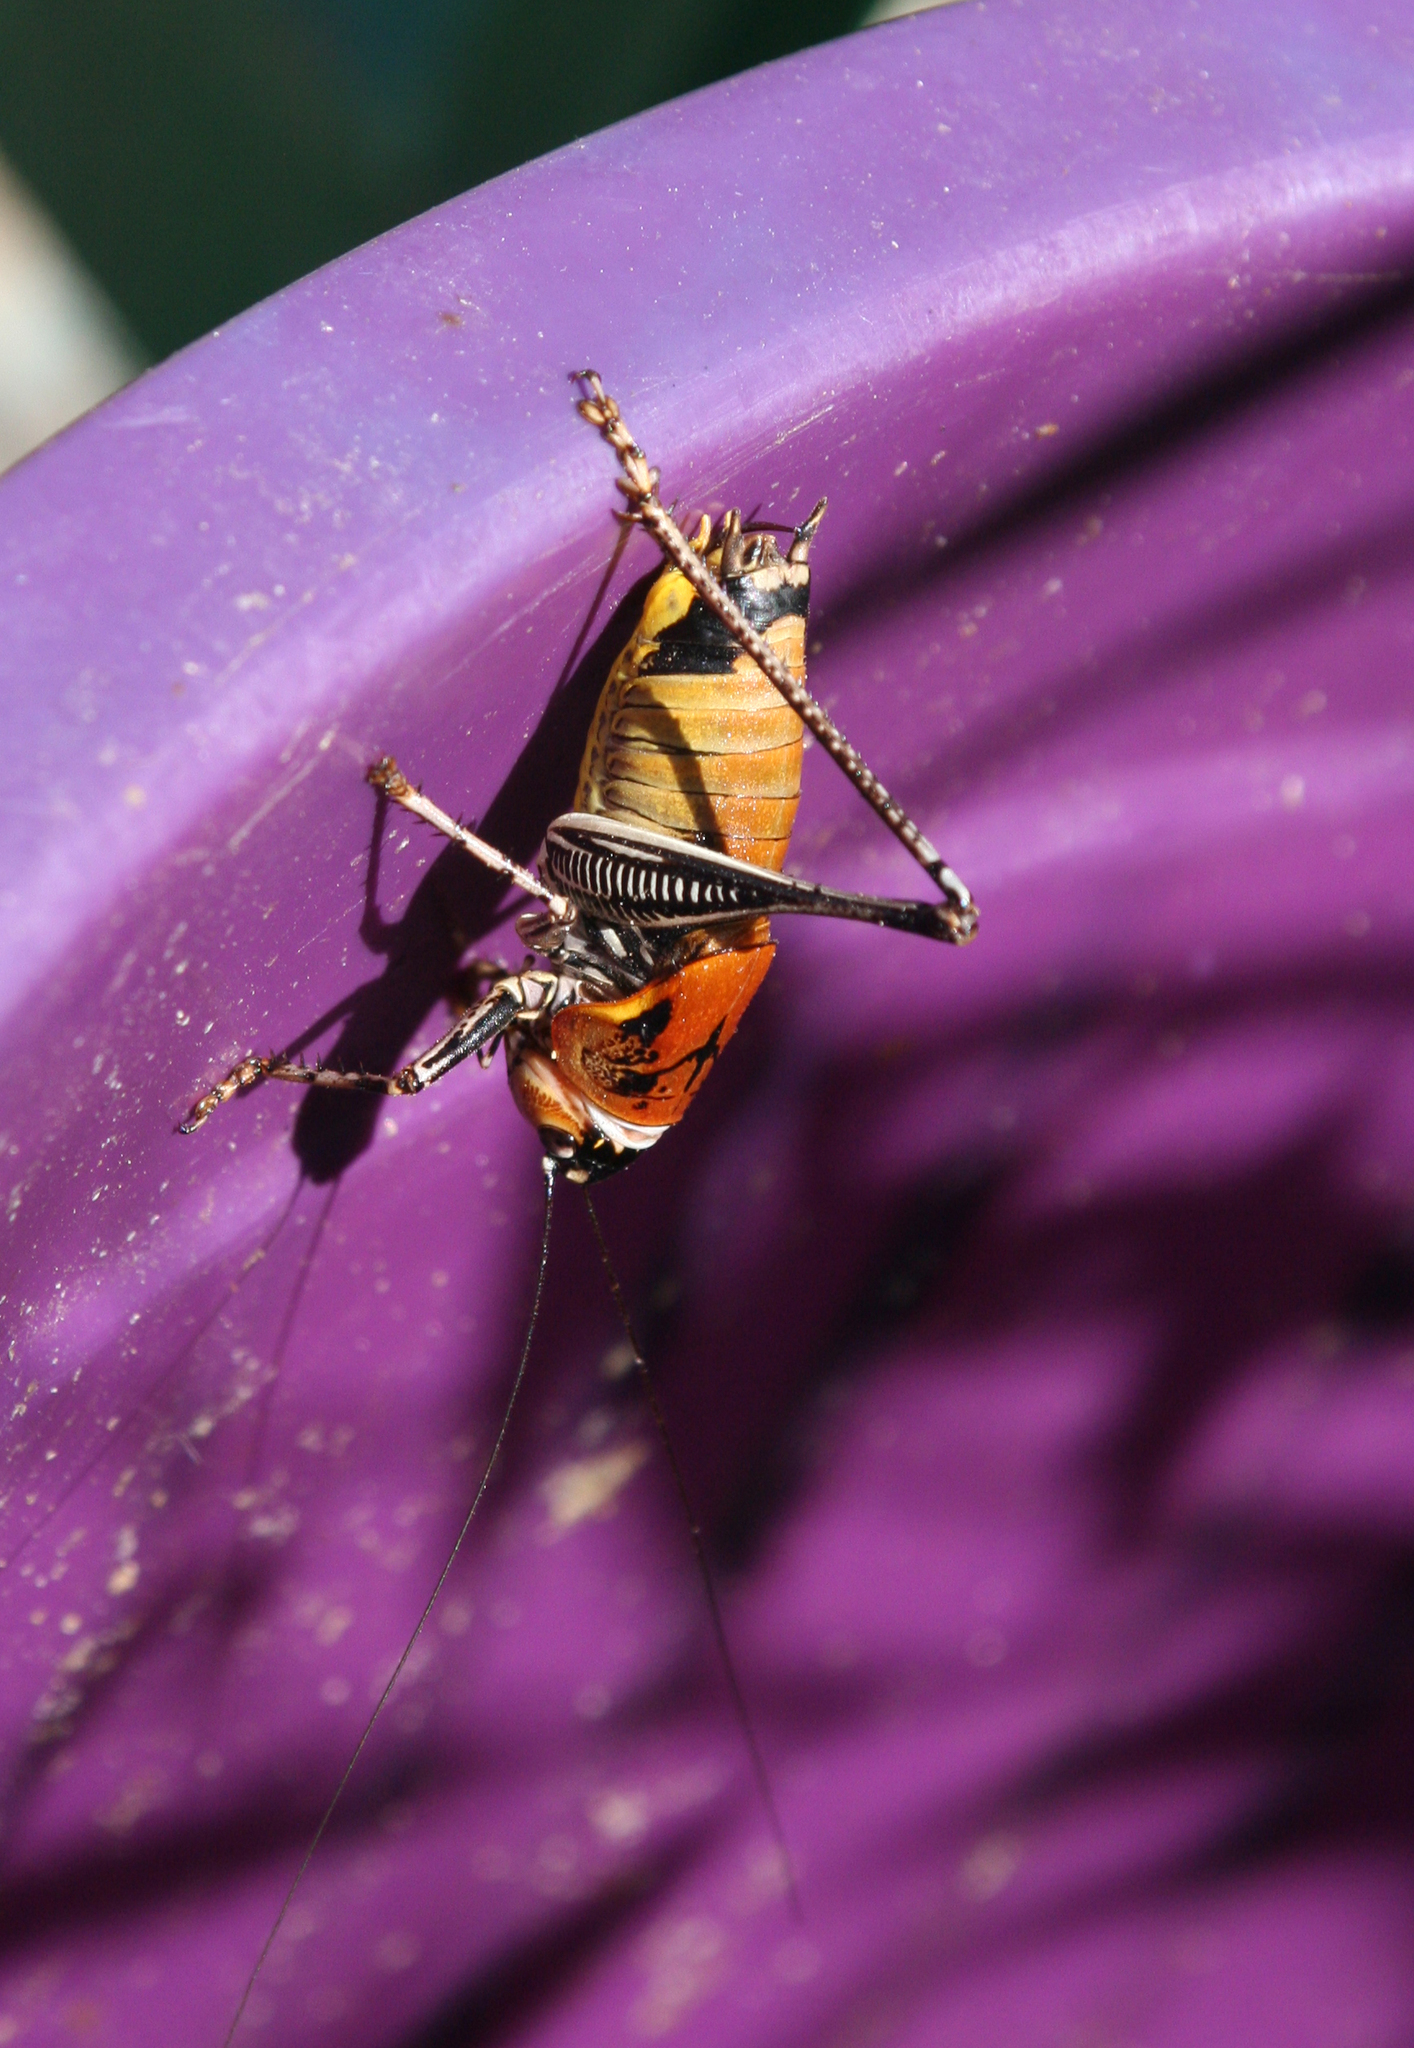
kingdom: Animalia
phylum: Arthropoda
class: Insecta
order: Orthoptera
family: Tettigoniidae
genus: Uvarovistia
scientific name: Uvarovistia satunini
